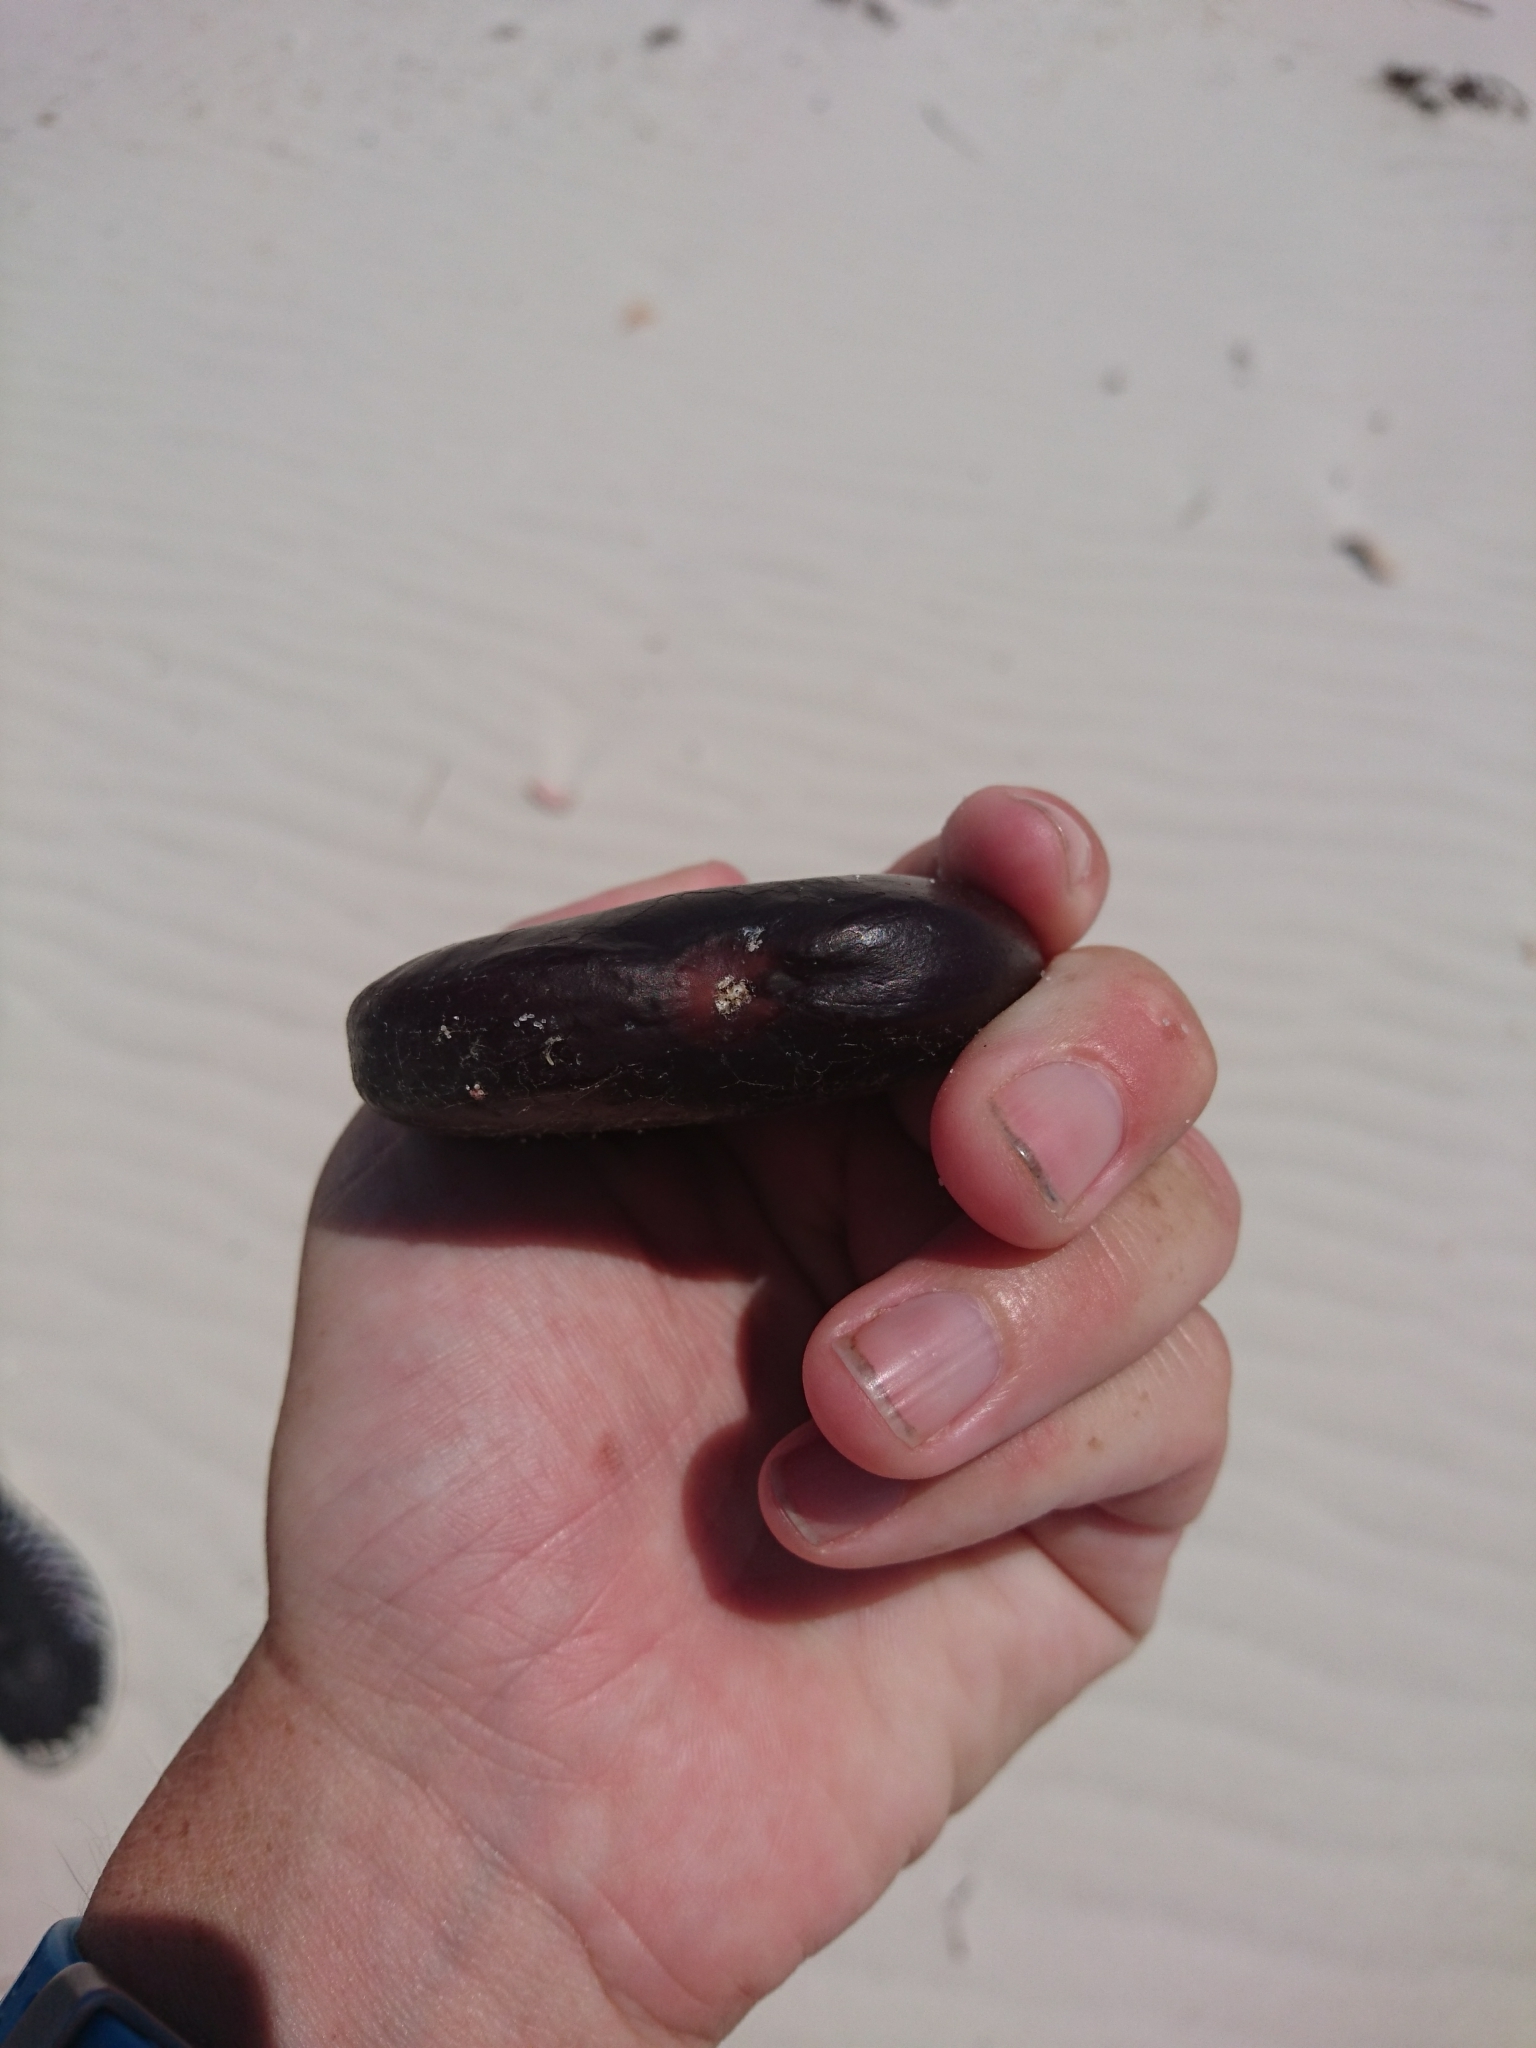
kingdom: Plantae
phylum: Tracheophyta
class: Magnoliopsida
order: Fabales
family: Fabaceae
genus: Entada
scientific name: Entada gigas
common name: Nicker-bean
